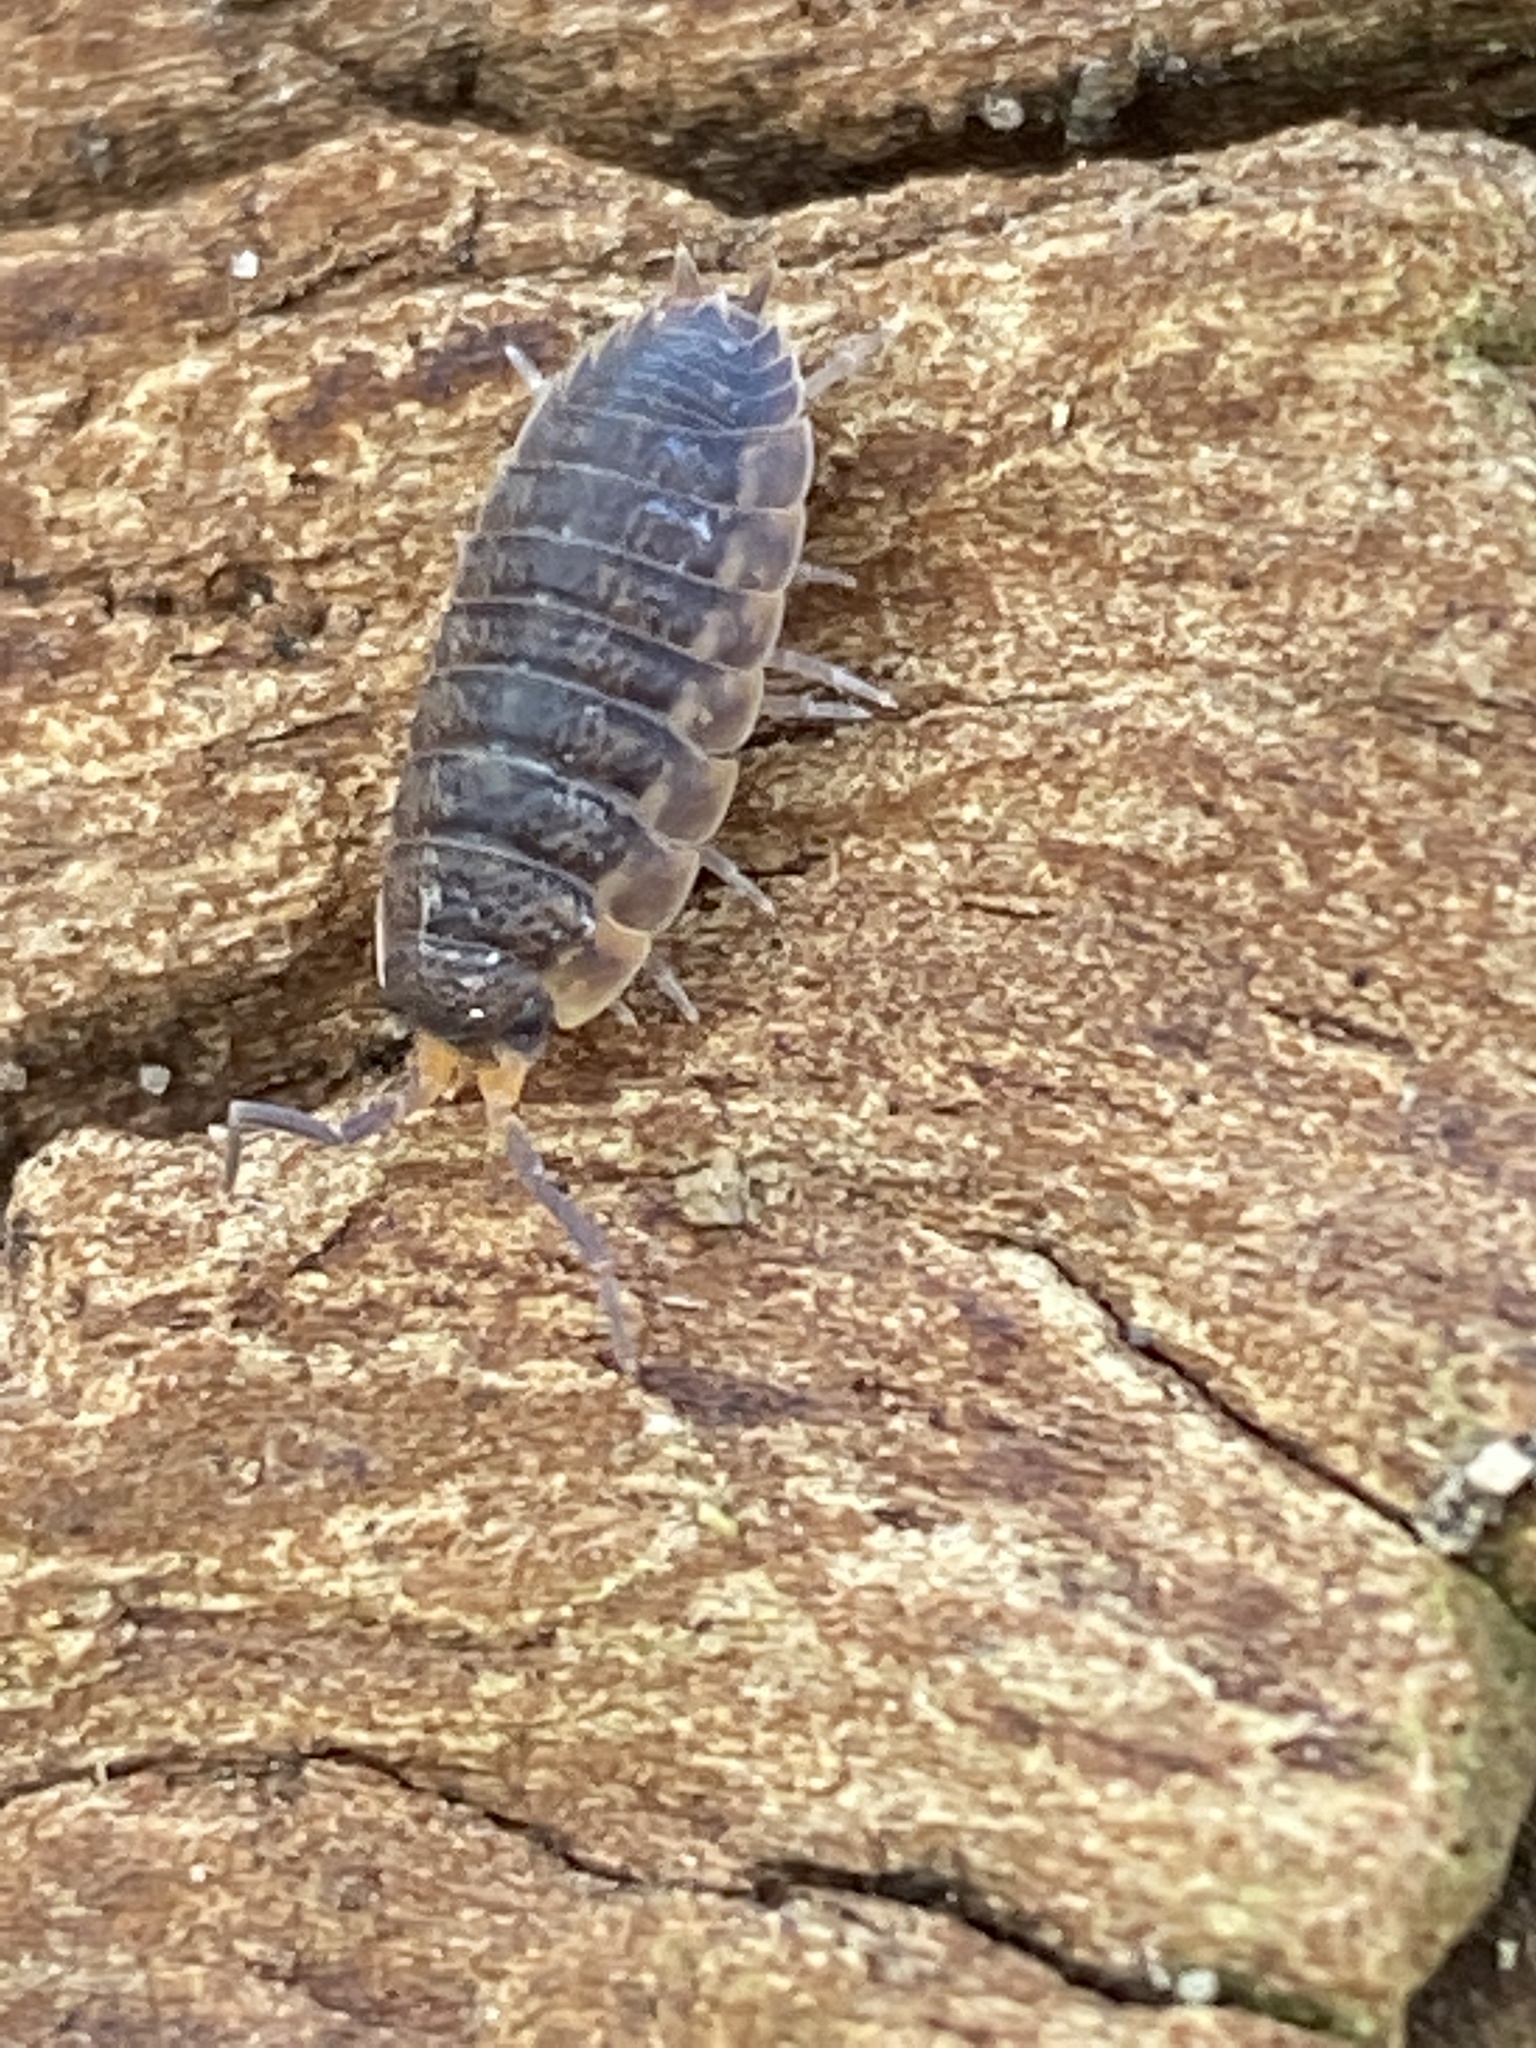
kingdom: Animalia
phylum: Arthropoda
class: Malacostraca
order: Isopoda
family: Porcellionidae
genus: Porcellio
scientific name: Porcellio scaber
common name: Common rough woodlouse
